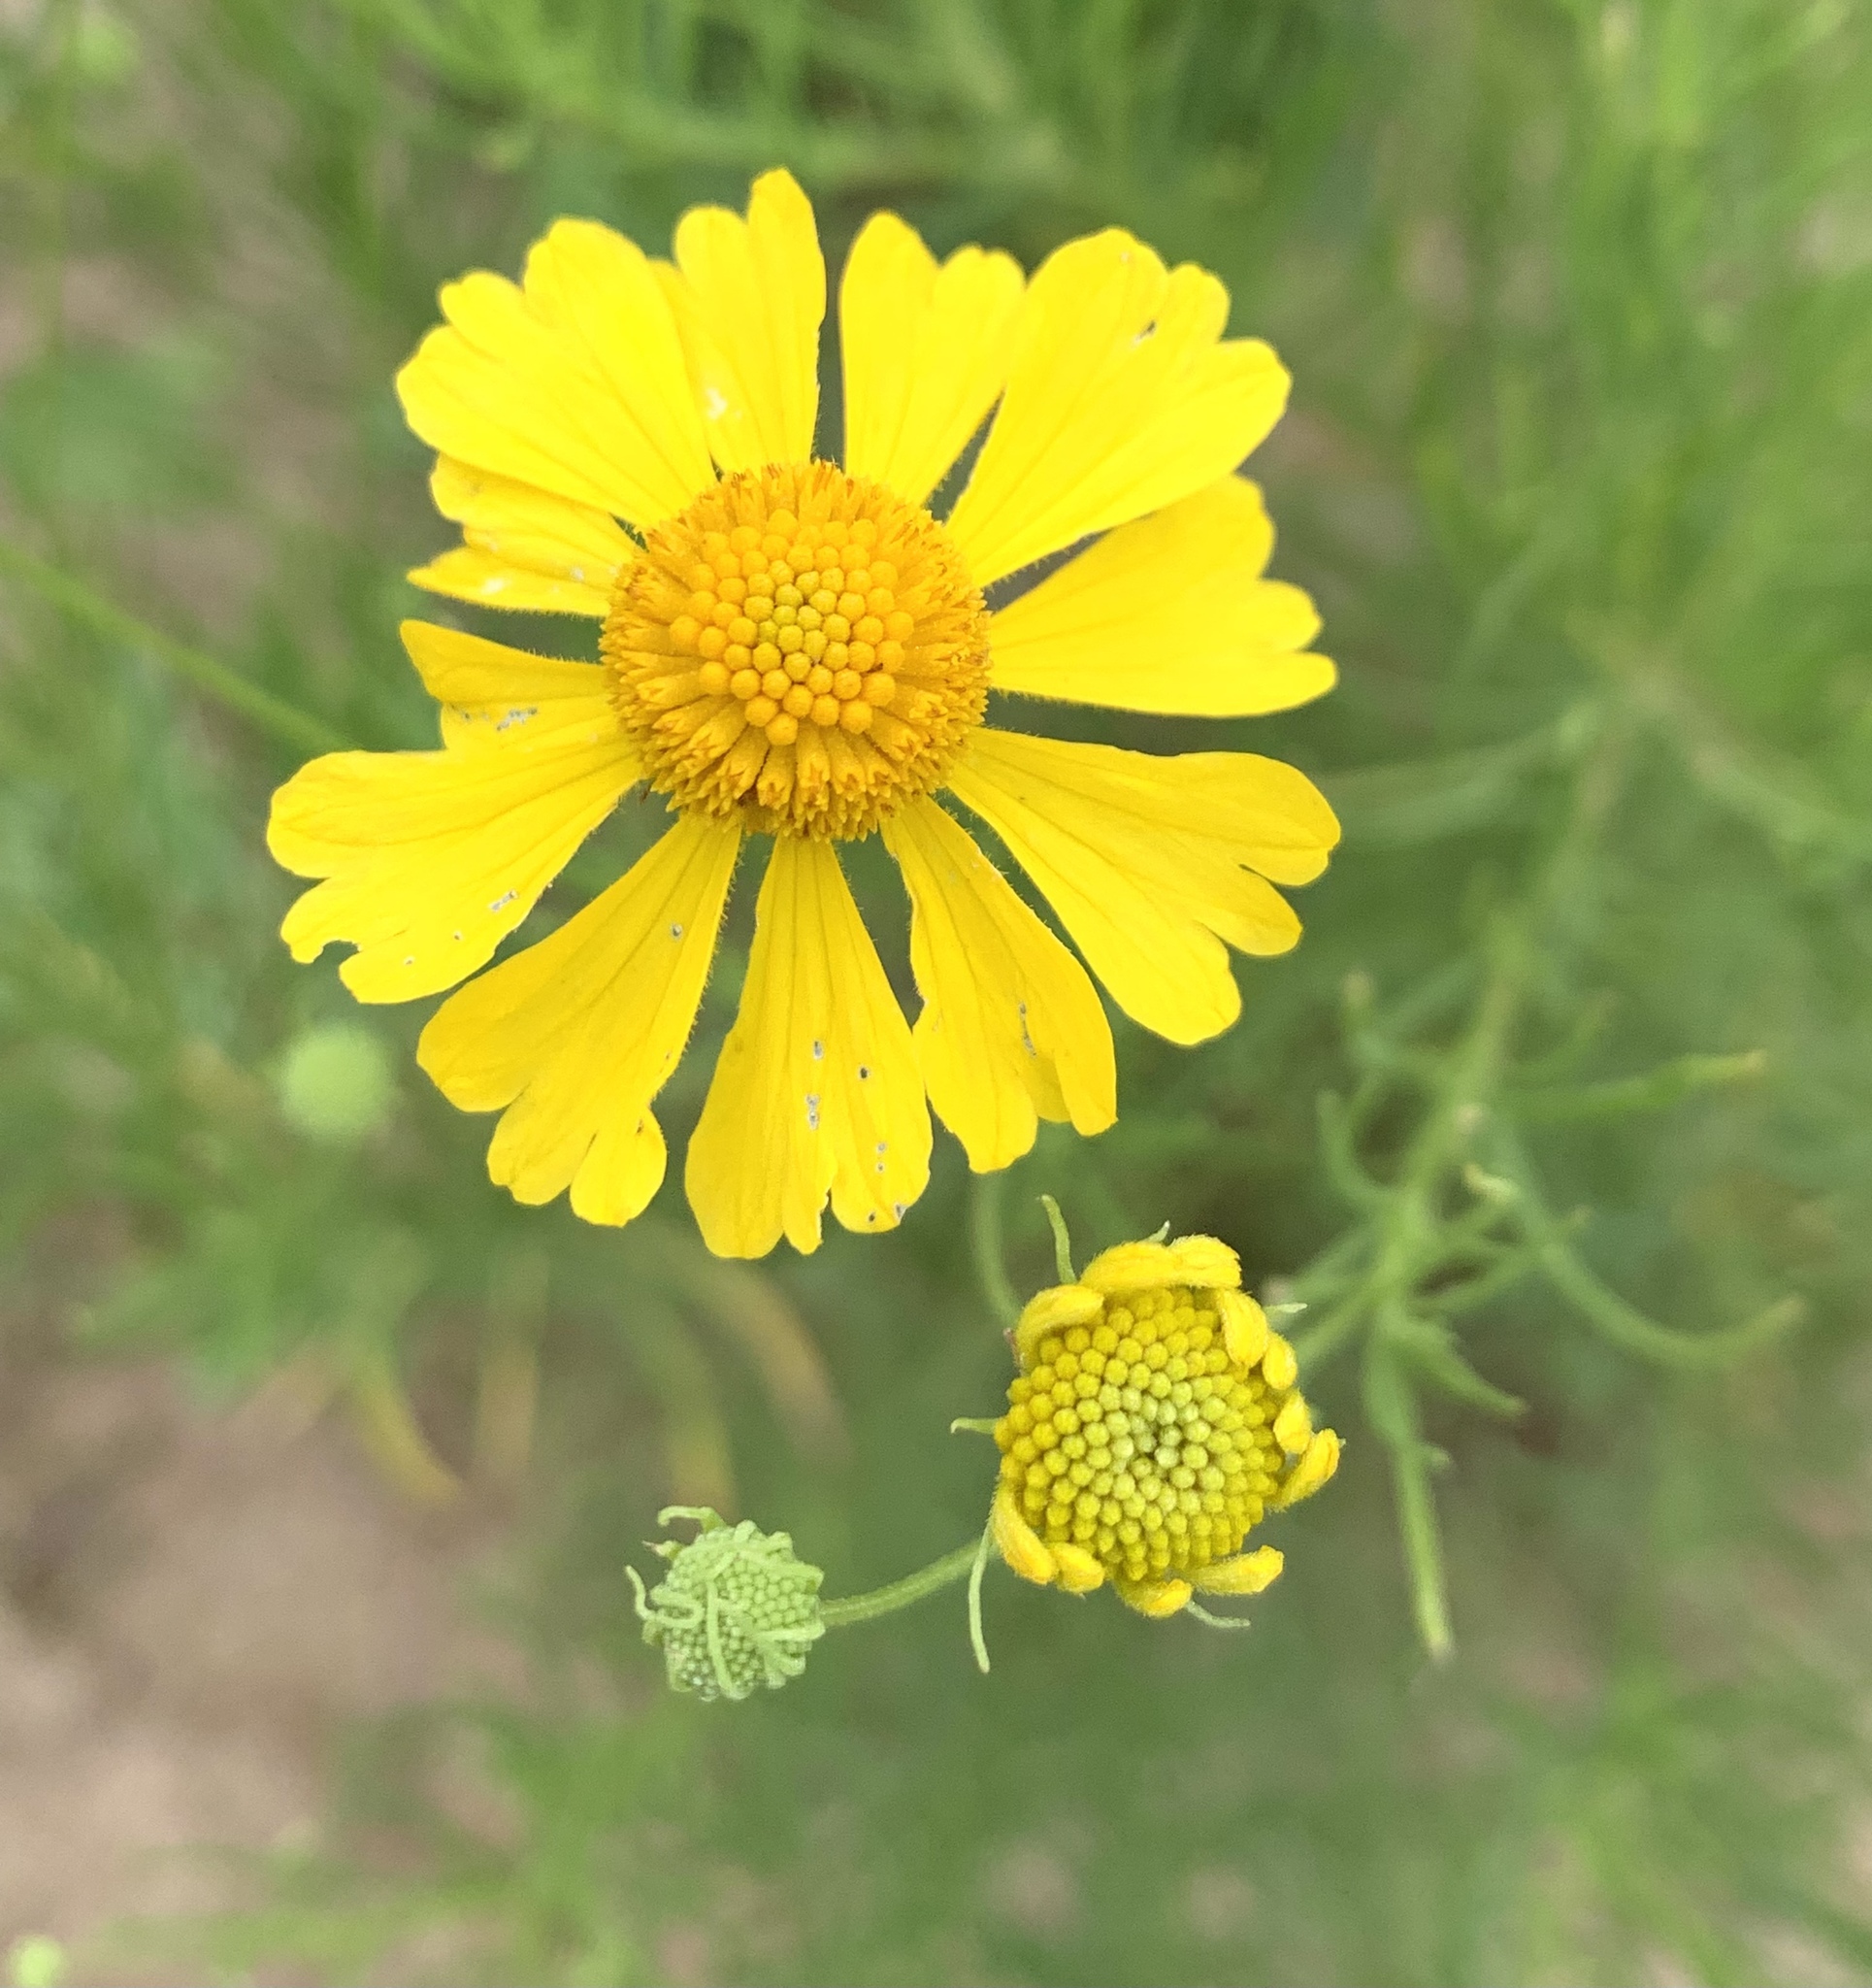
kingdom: Plantae
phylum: Tracheophyta
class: Magnoliopsida
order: Asterales
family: Asteraceae
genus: Helenium
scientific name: Helenium amarum
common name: Bitter sneezeweed
